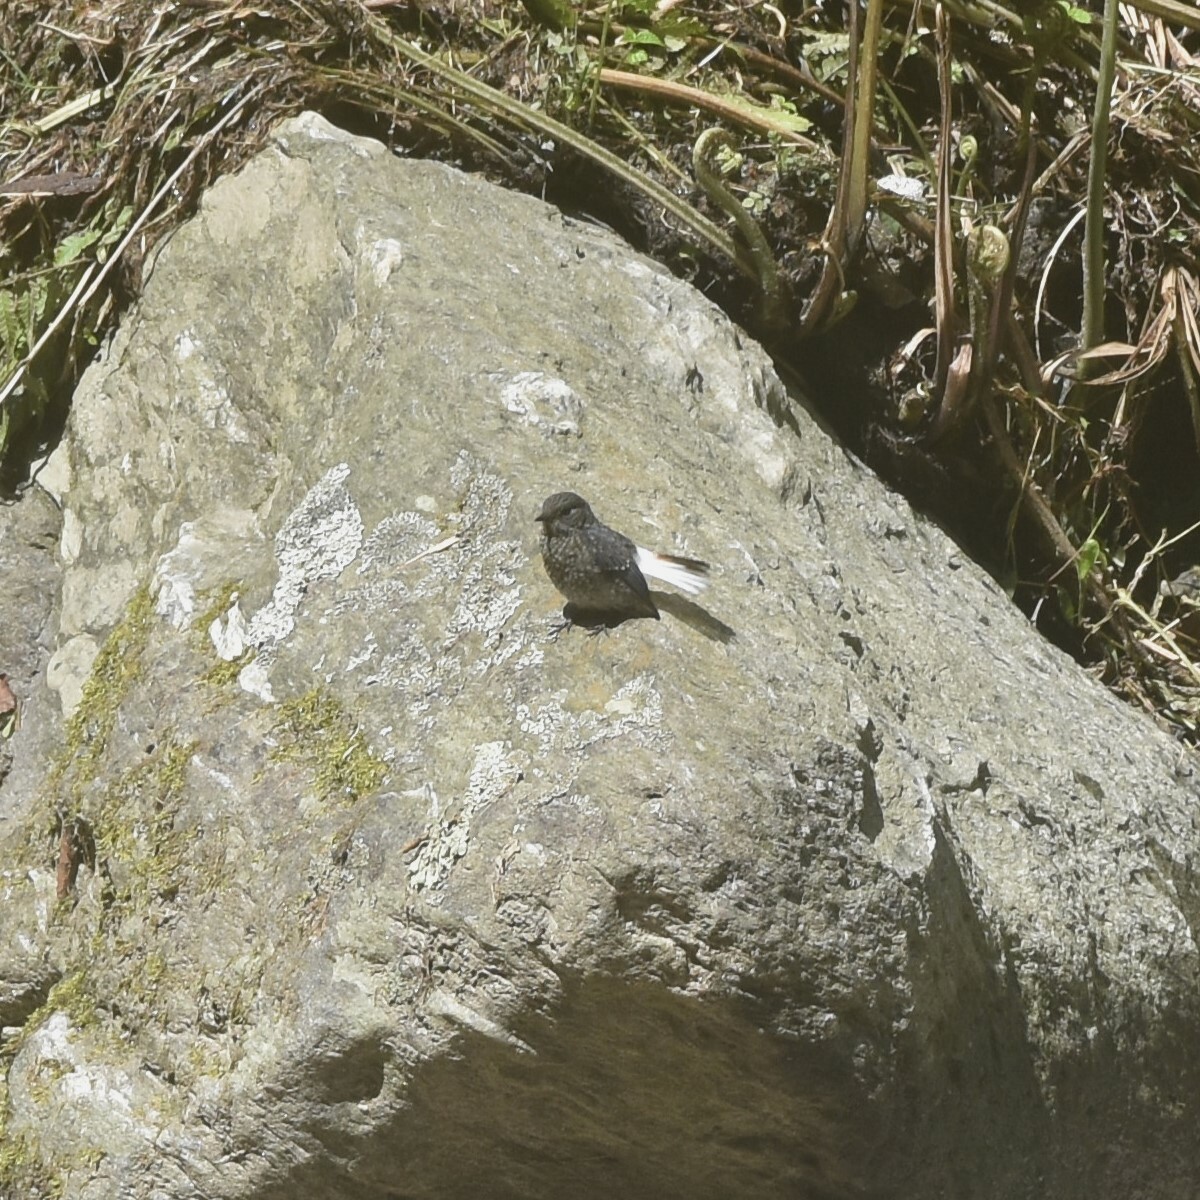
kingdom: Animalia
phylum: Chordata
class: Aves
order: Passeriformes
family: Muscicapidae
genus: Phoenicurus
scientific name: Phoenicurus fuliginosus
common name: Plumbeous water redstart
